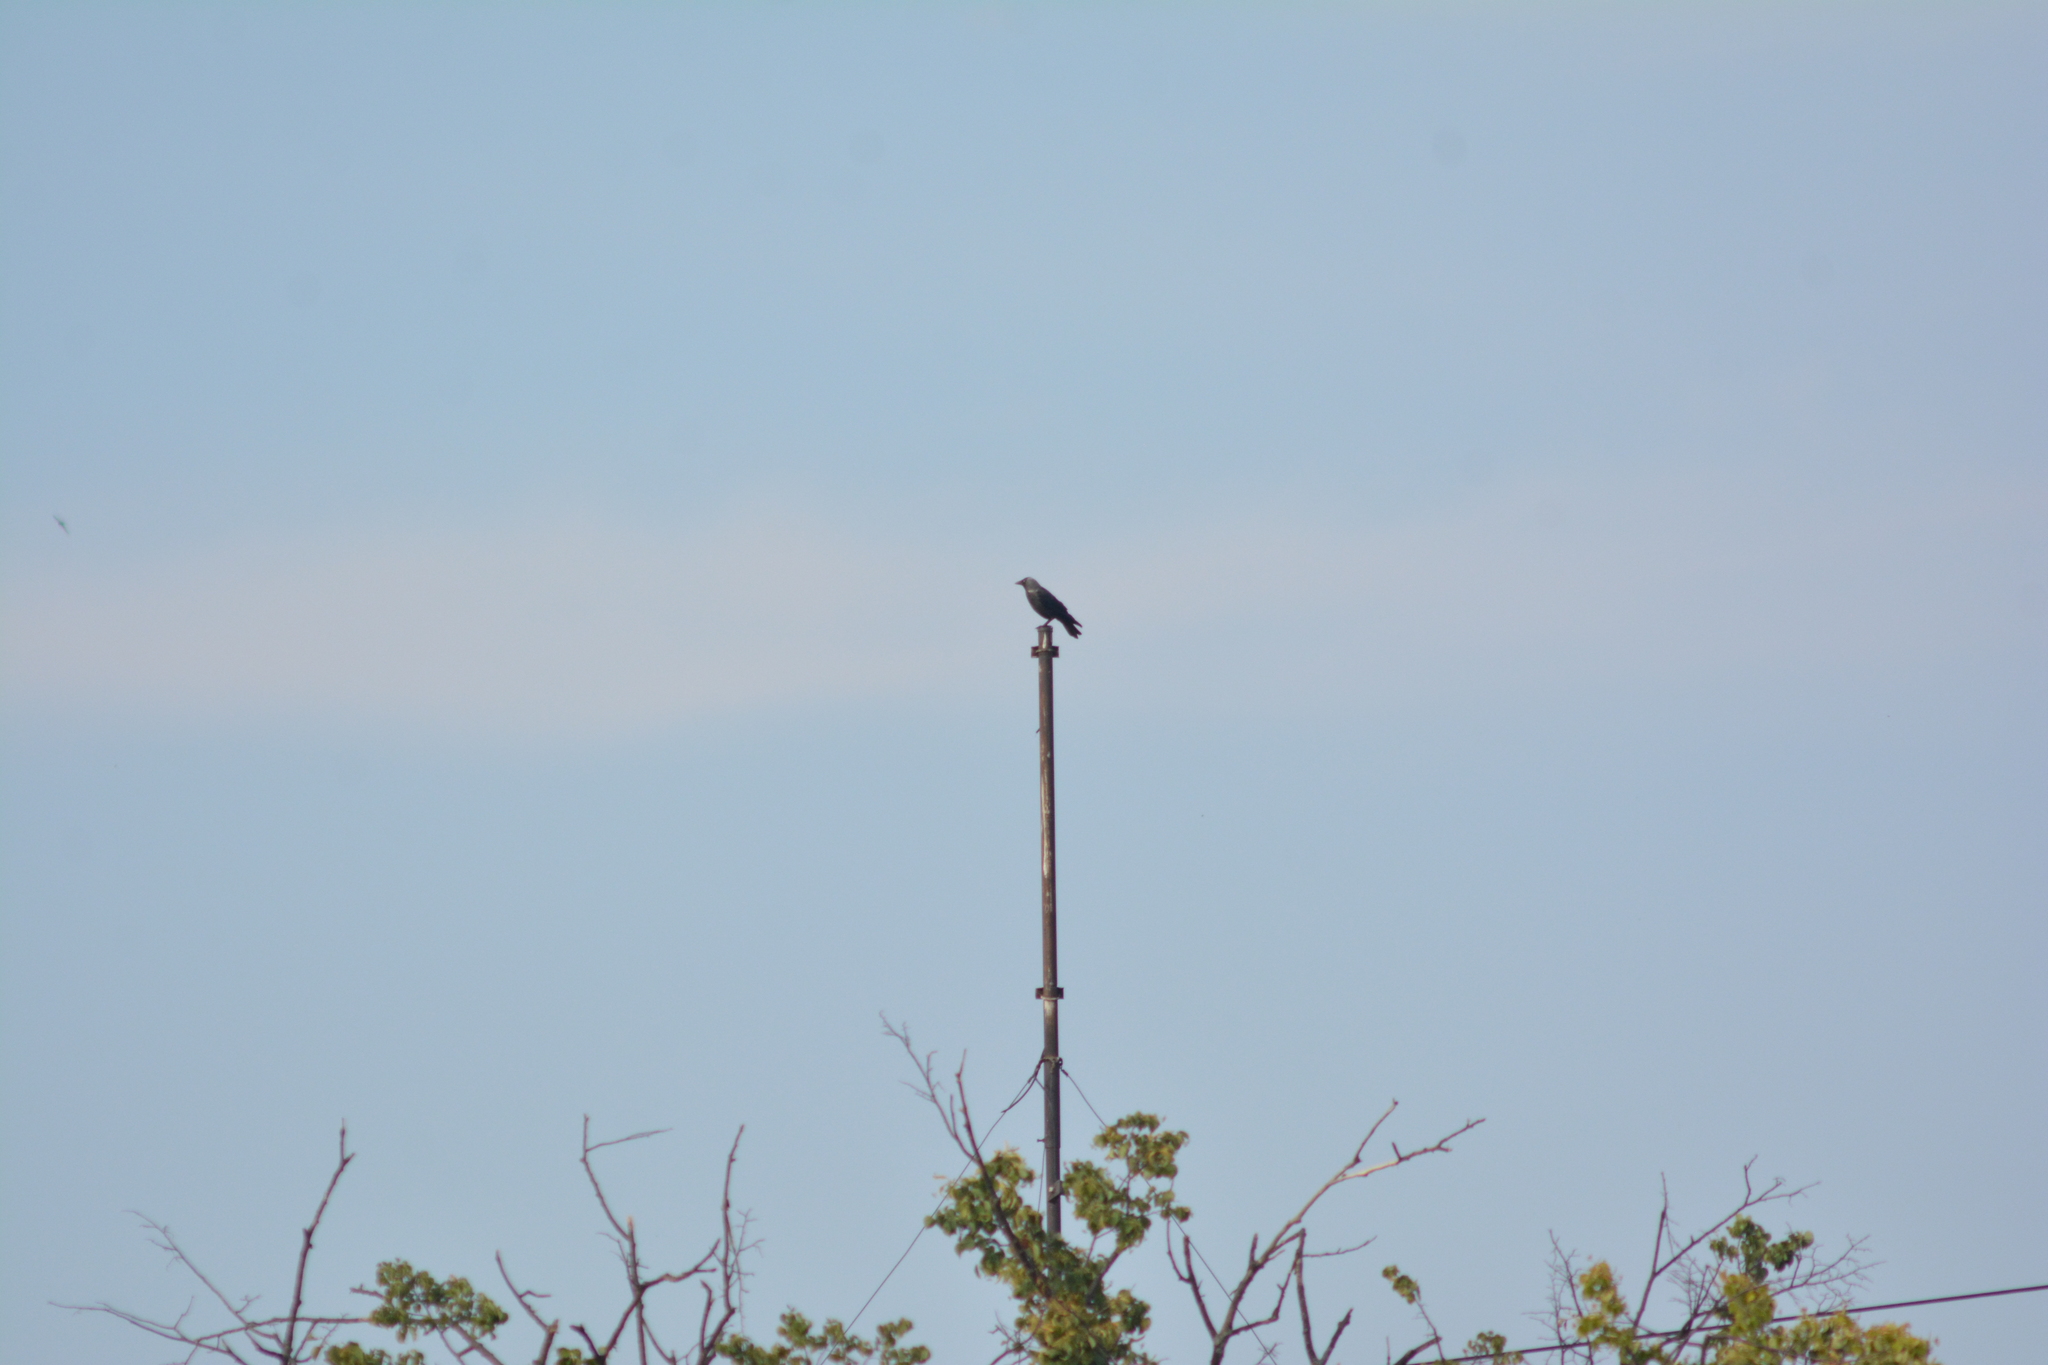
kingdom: Animalia
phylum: Chordata
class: Aves
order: Passeriformes
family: Corvidae
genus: Coloeus
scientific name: Coloeus monedula
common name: Western jackdaw
